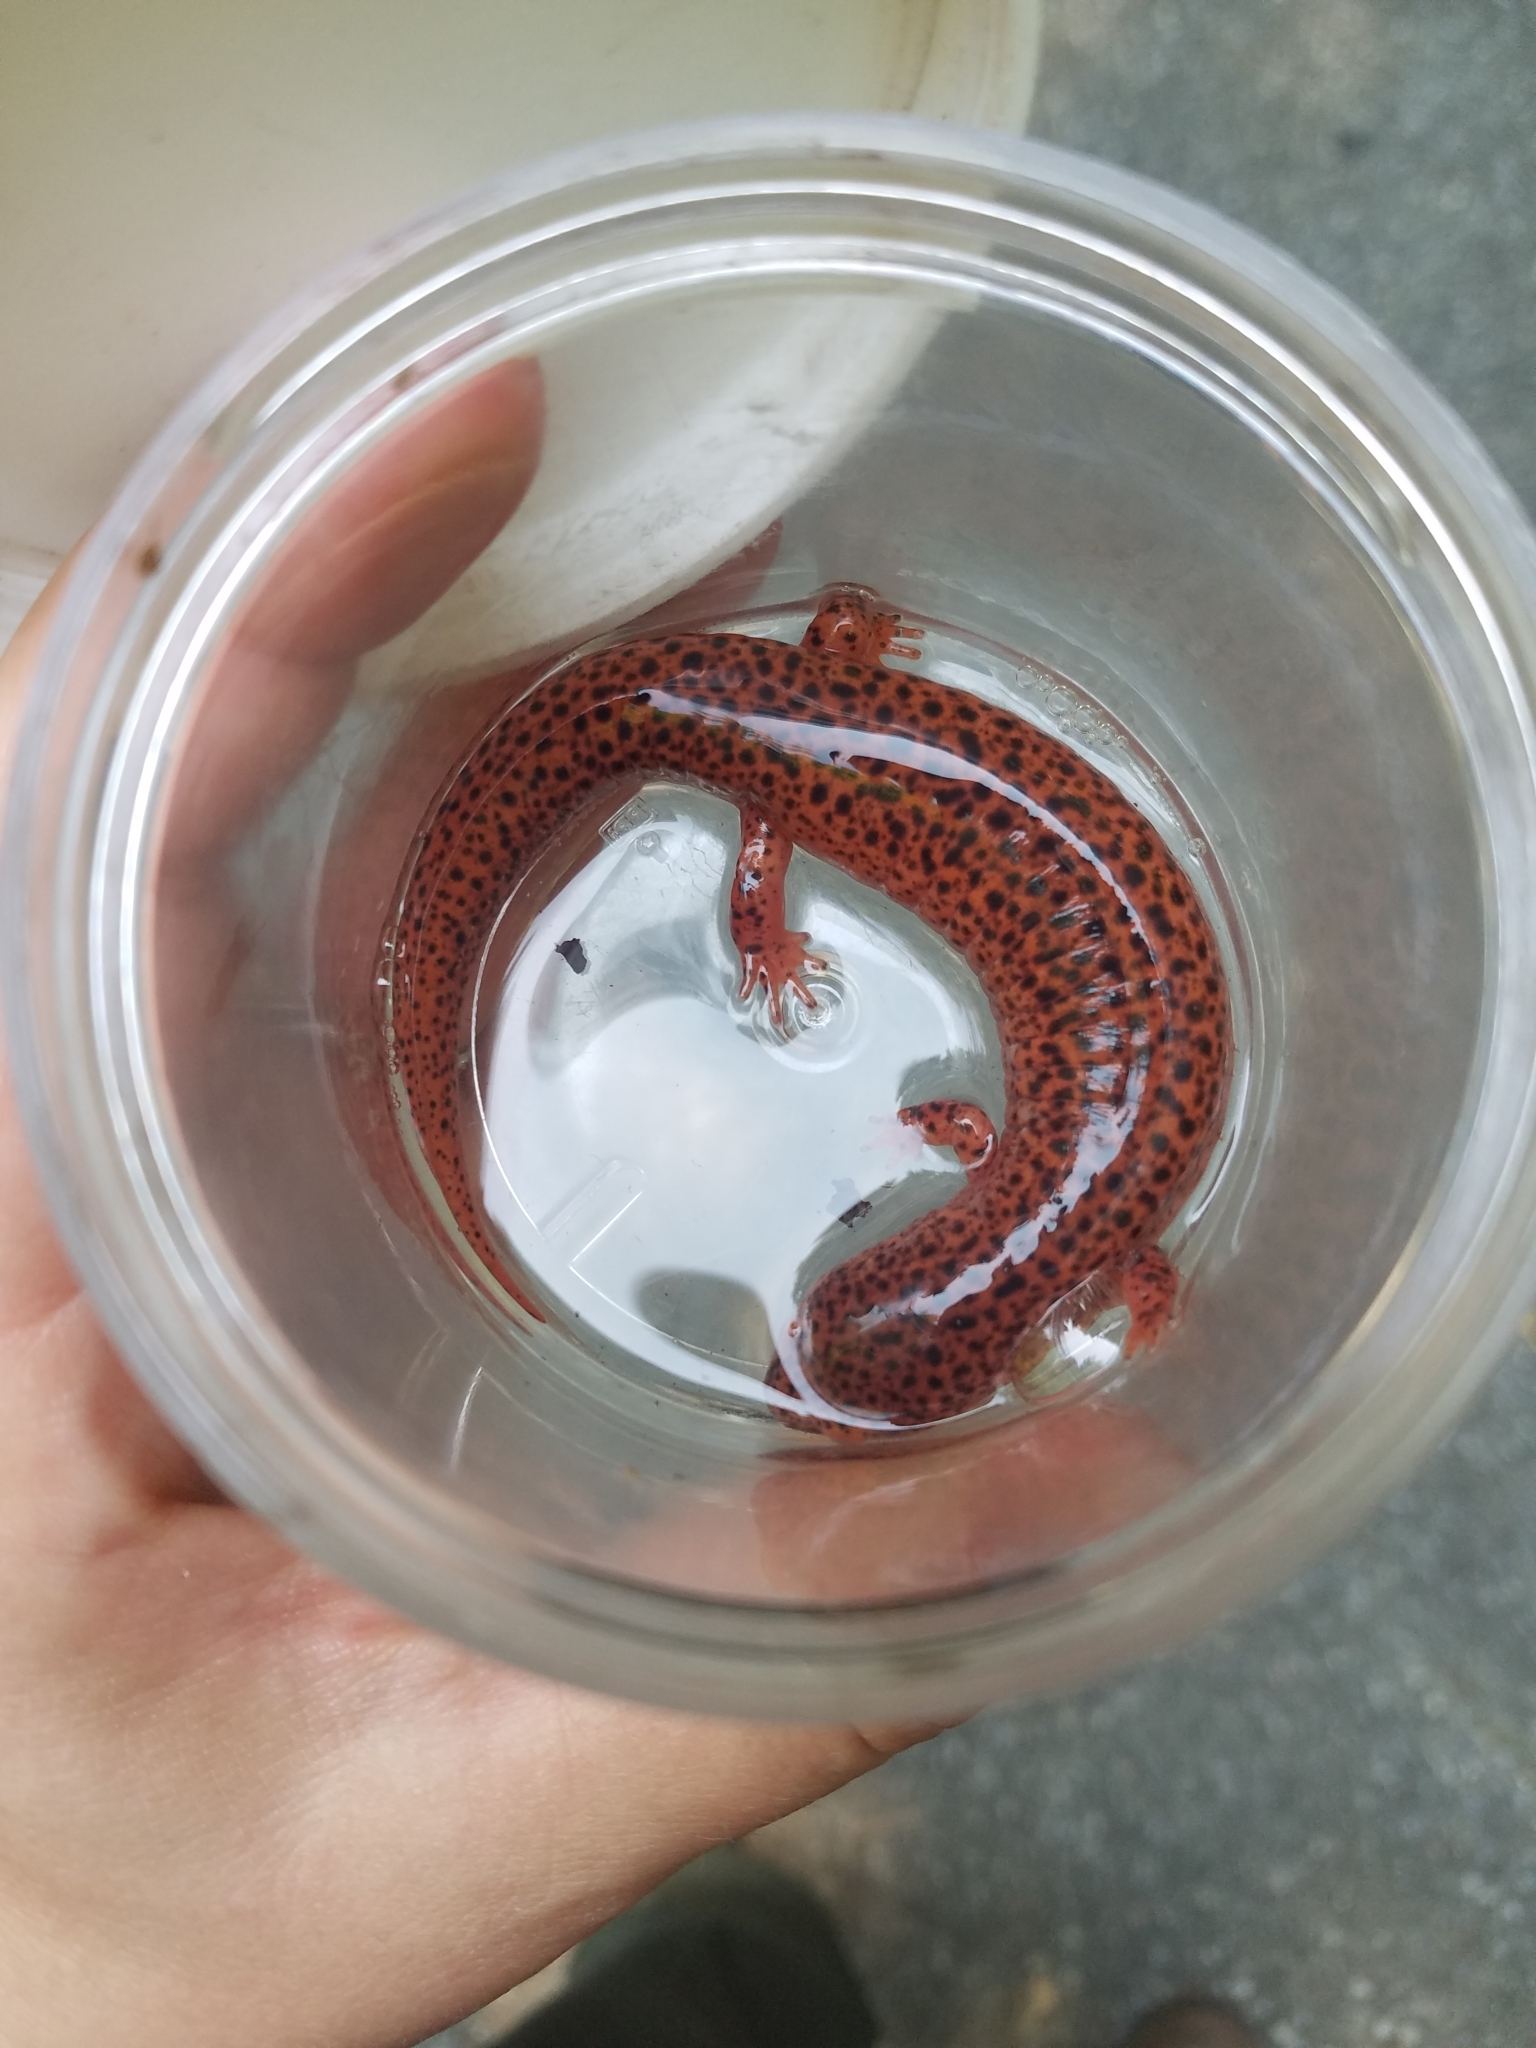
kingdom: Animalia
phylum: Chordata
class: Amphibia
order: Caudata
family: Plethodontidae
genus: Pseudotriton
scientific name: Pseudotriton ruber
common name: Red salamander
